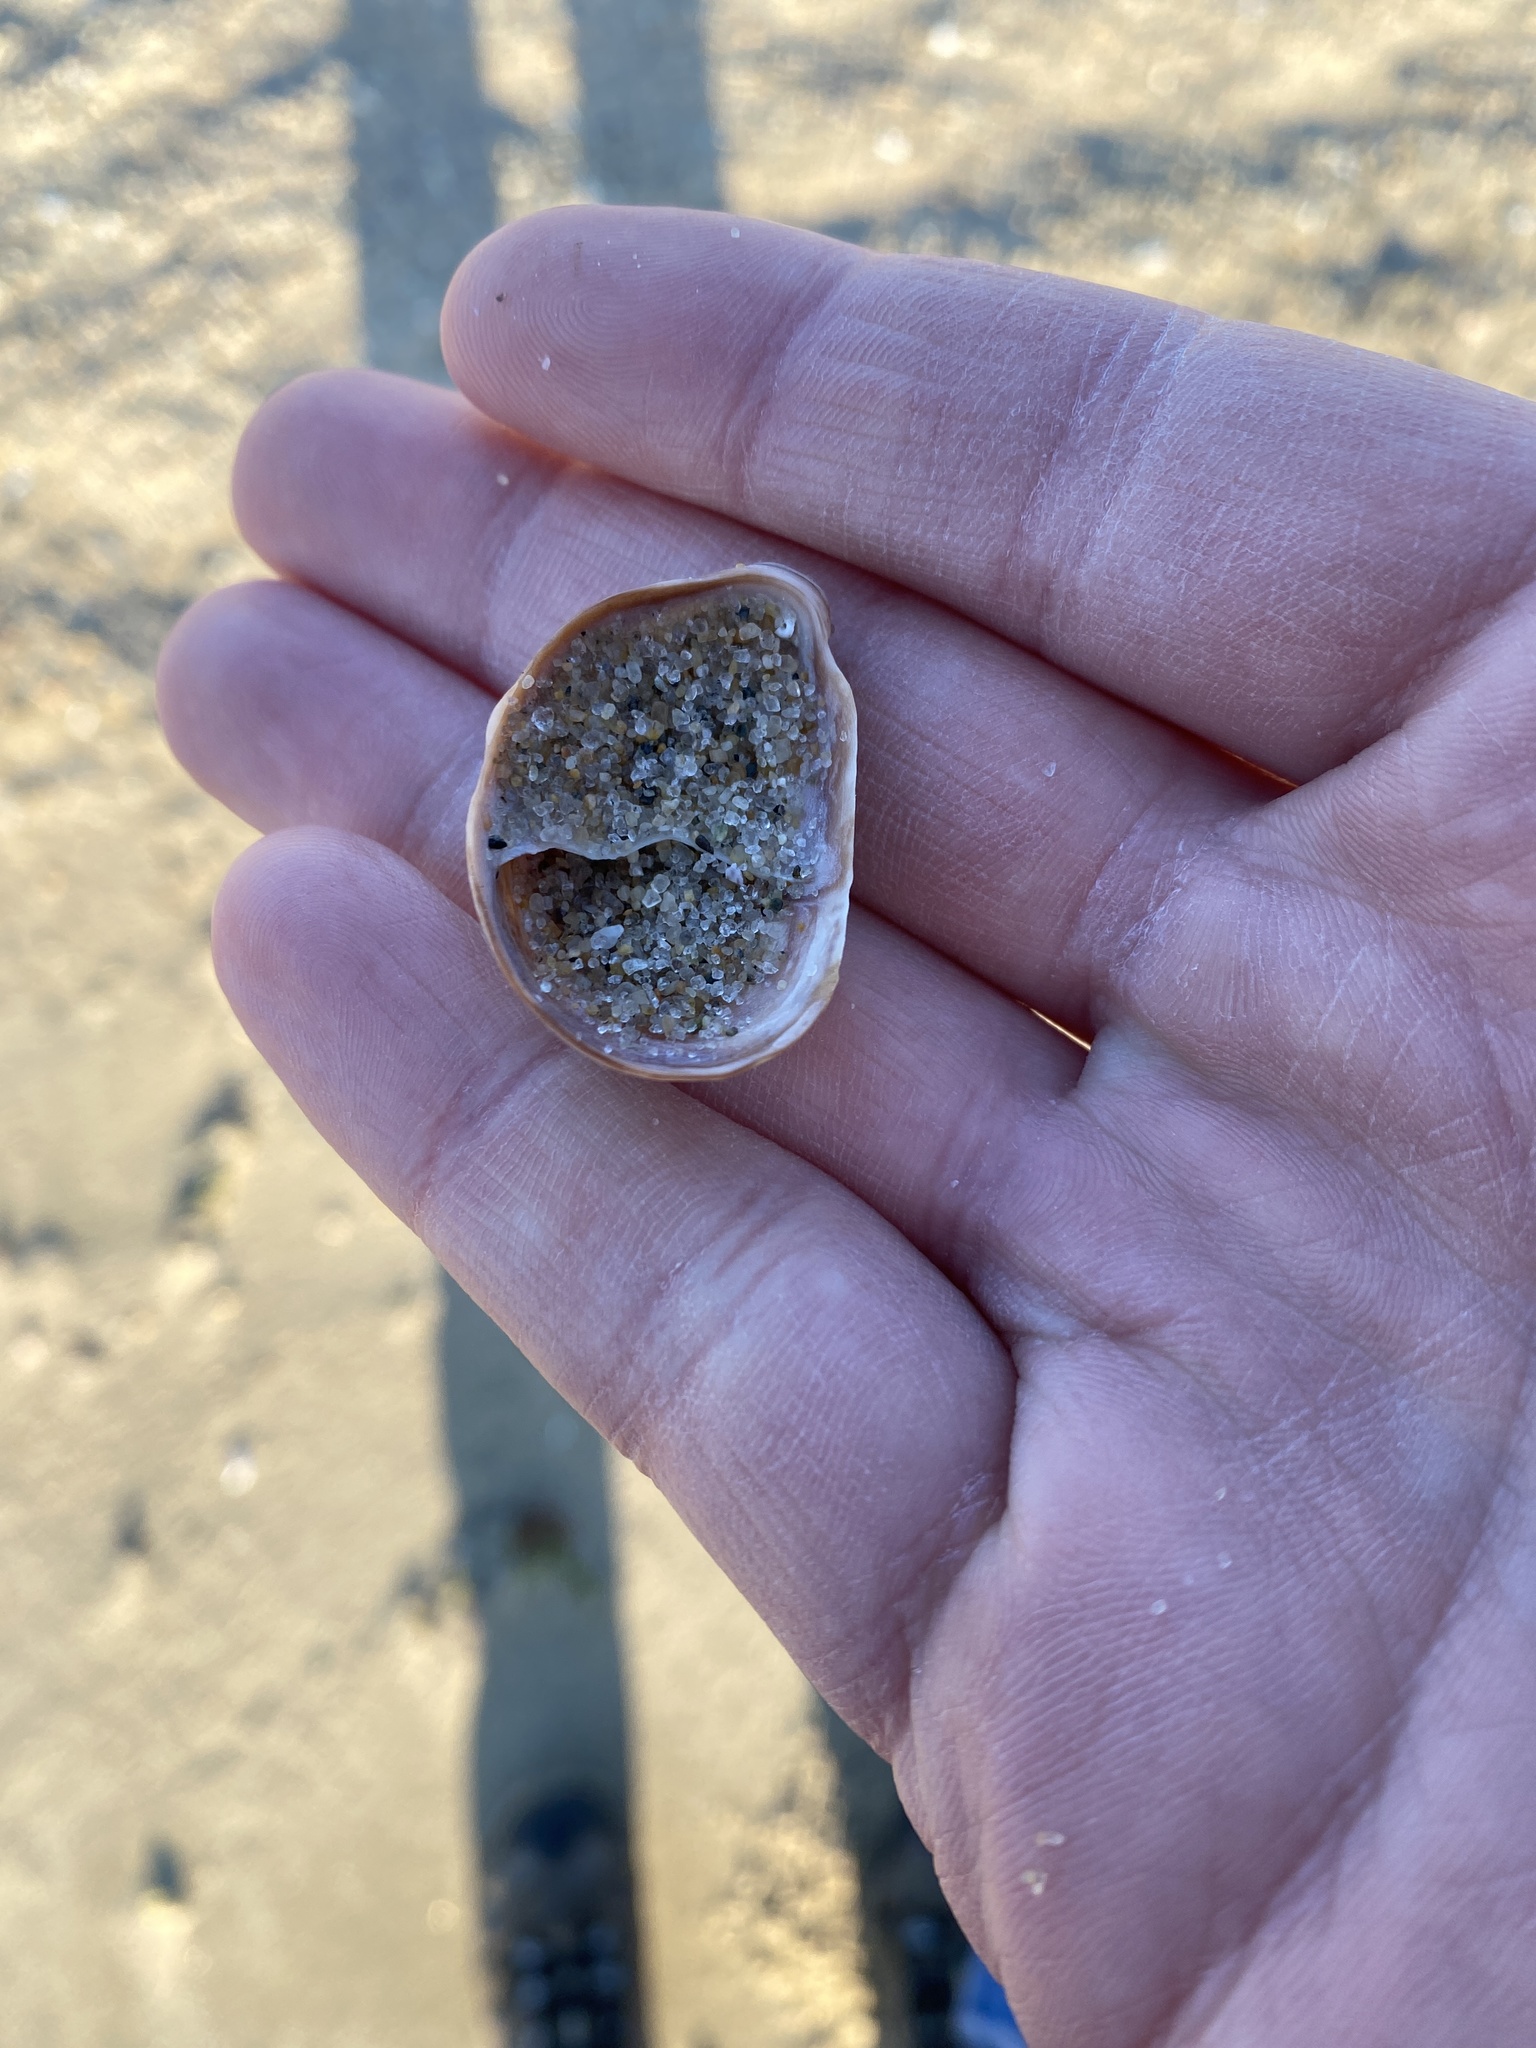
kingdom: Animalia
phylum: Mollusca
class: Gastropoda
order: Littorinimorpha
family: Calyptraeidae
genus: Crepidula
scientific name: Crepidula fornicata
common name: Slipper limpet
